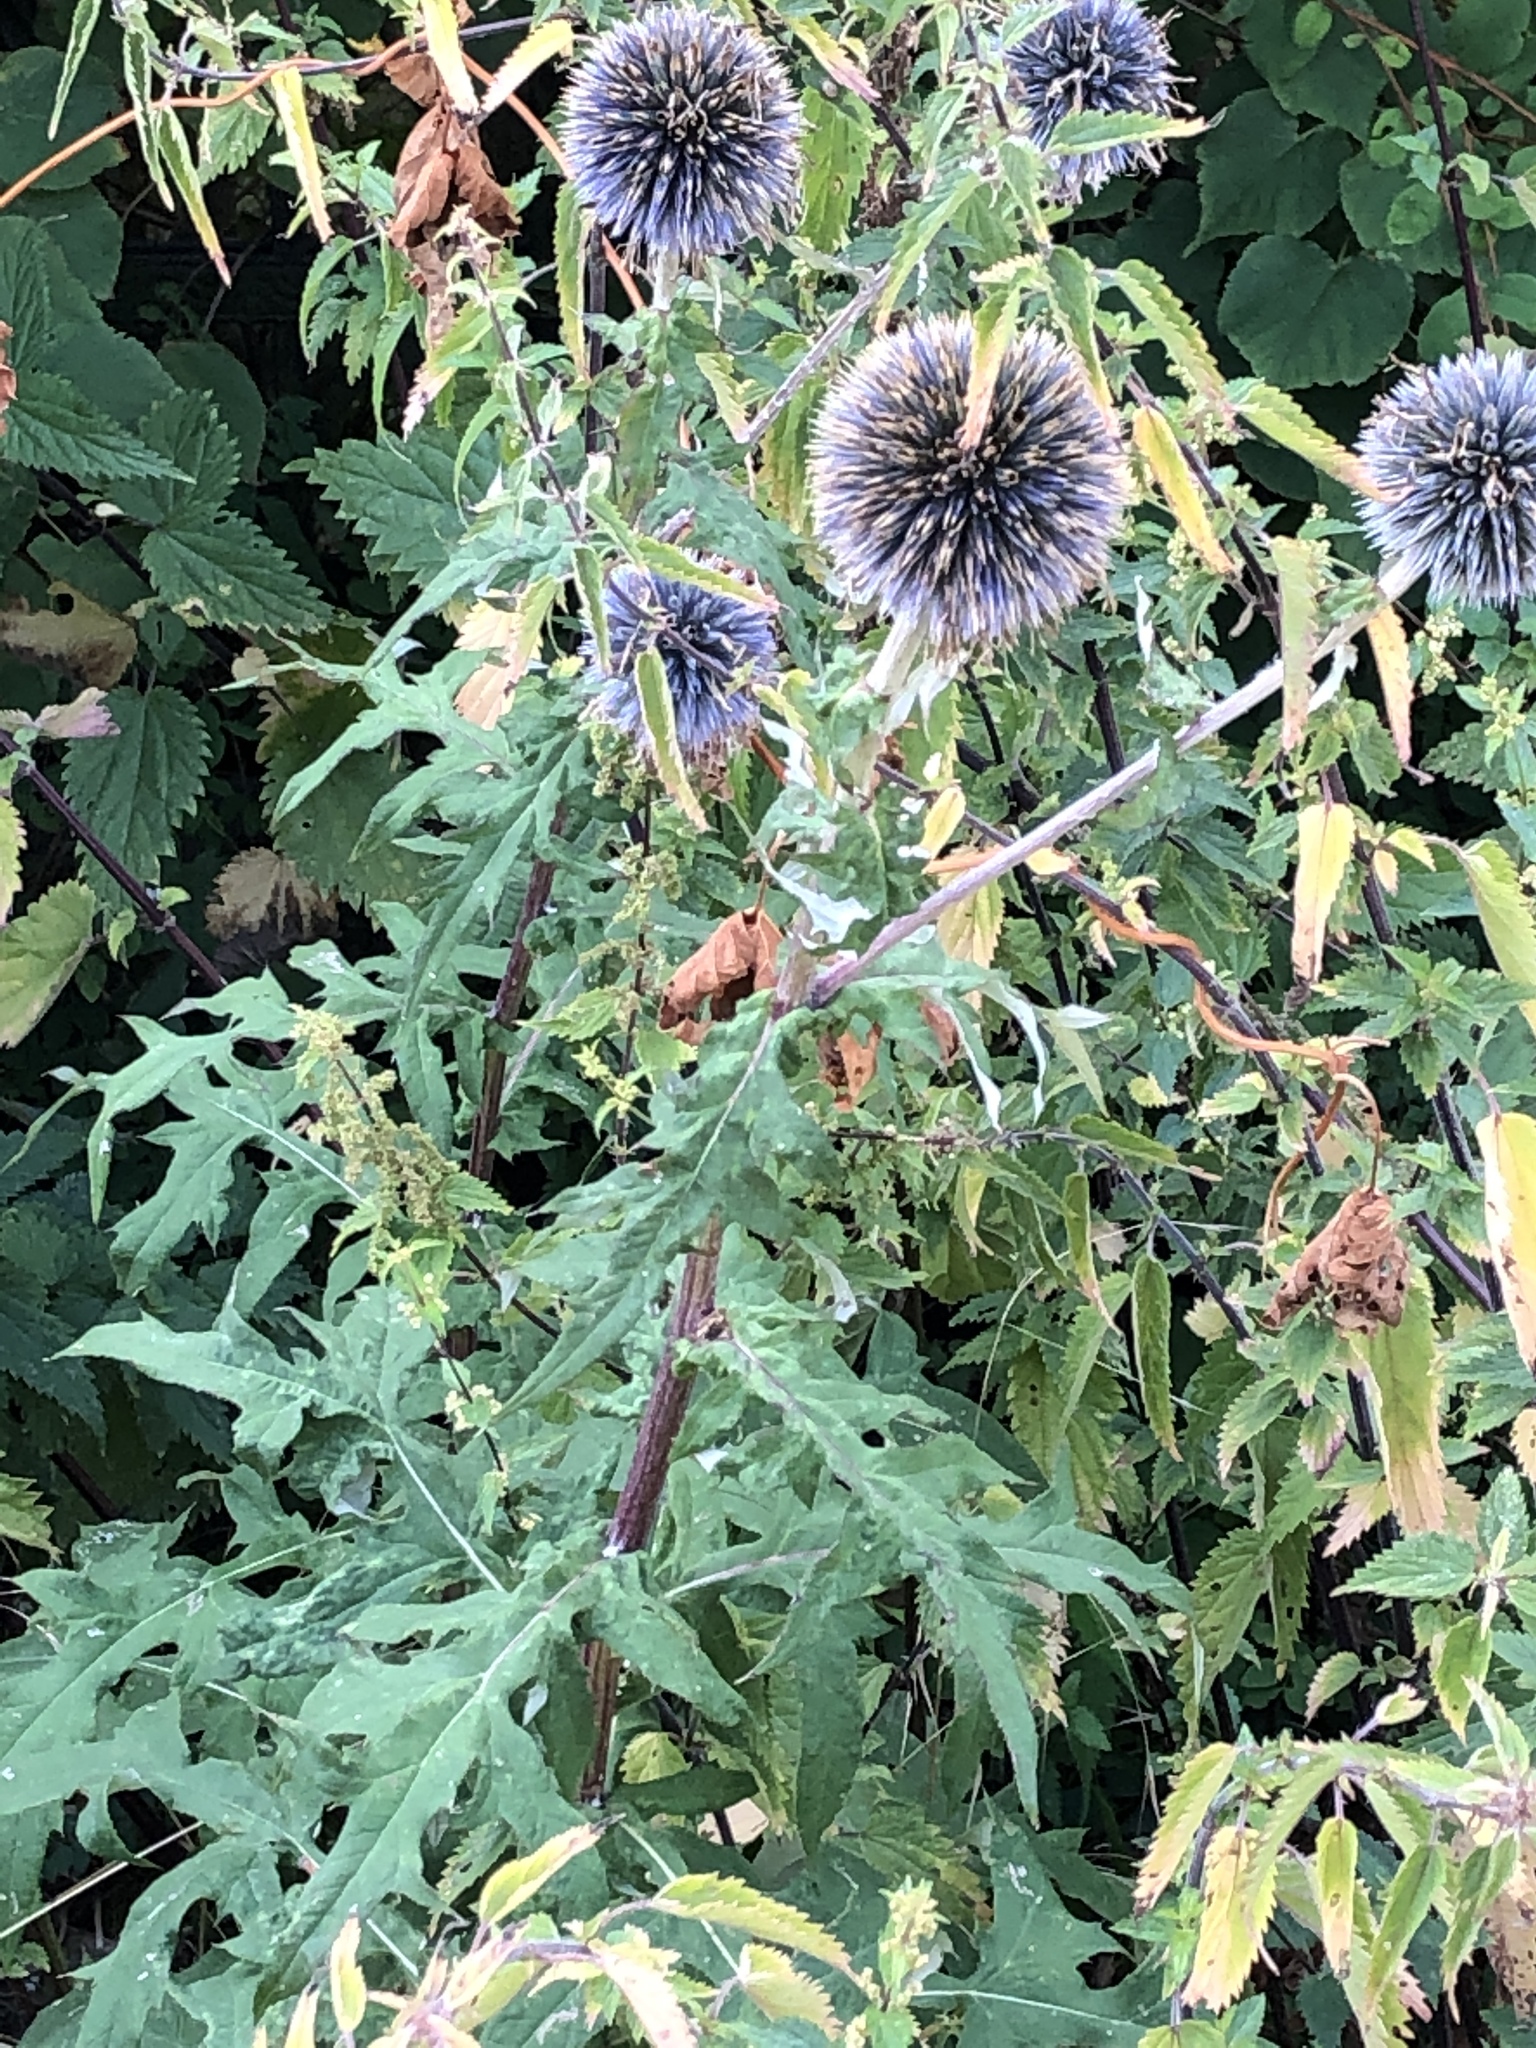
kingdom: Plantae
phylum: Tracheophyta
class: Magnoliopsida
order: Asterales
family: Asteraceae
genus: Echinops
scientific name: Echinops sphaerocephalus
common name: Glandular globe-thistle
